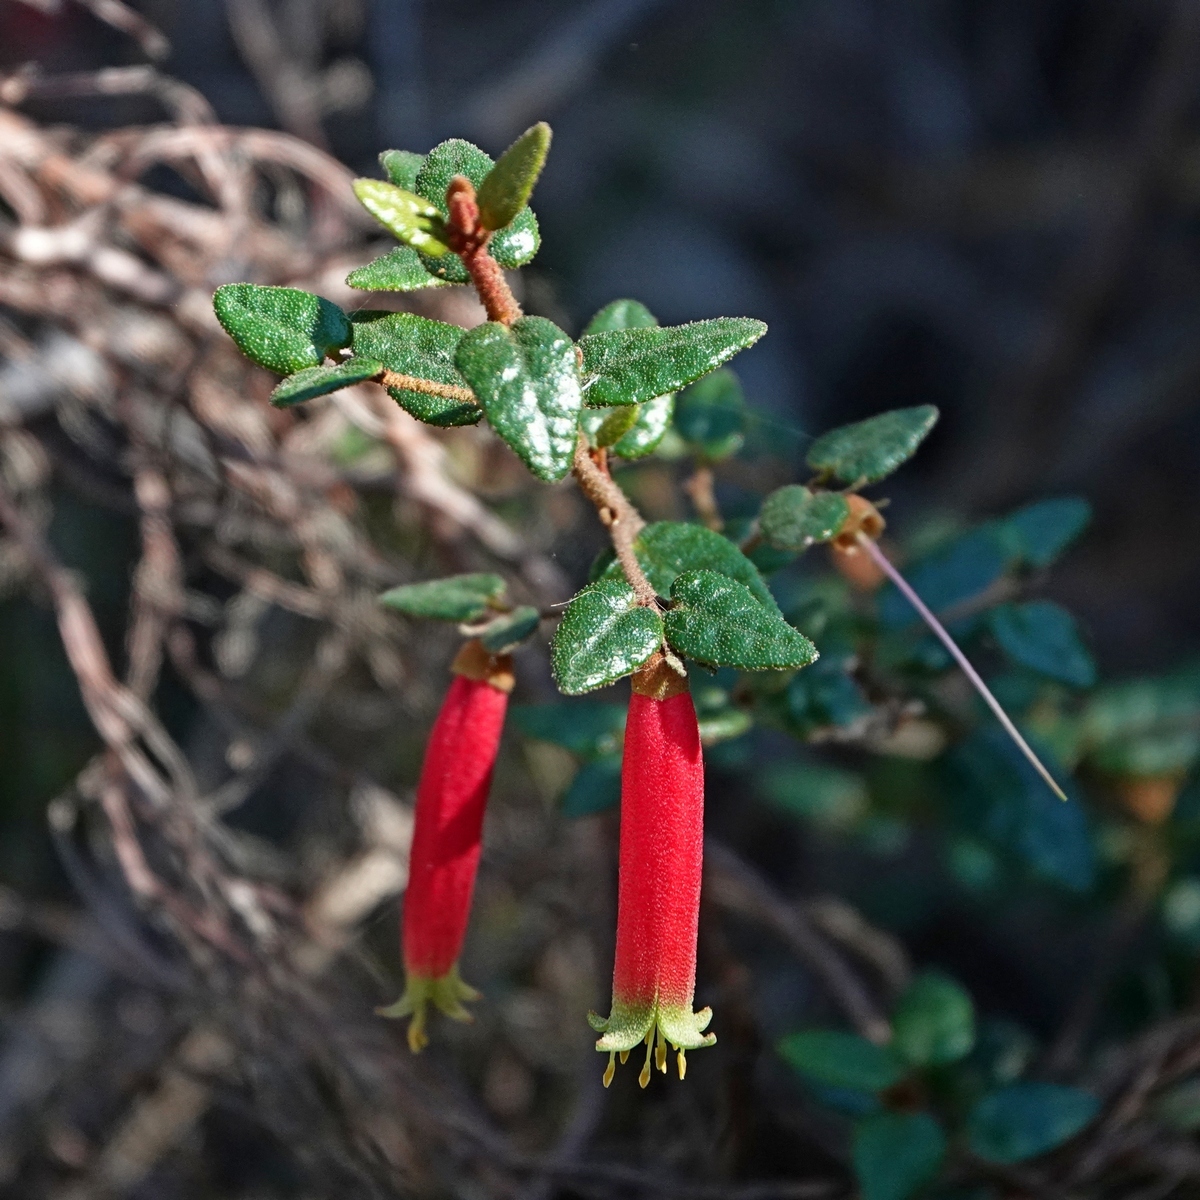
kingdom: Plantae
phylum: Tracheophyta
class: Magnoliopsida
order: Sapindales
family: Rutaceae
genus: Correa
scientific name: Correa reflexa
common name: Common correa
